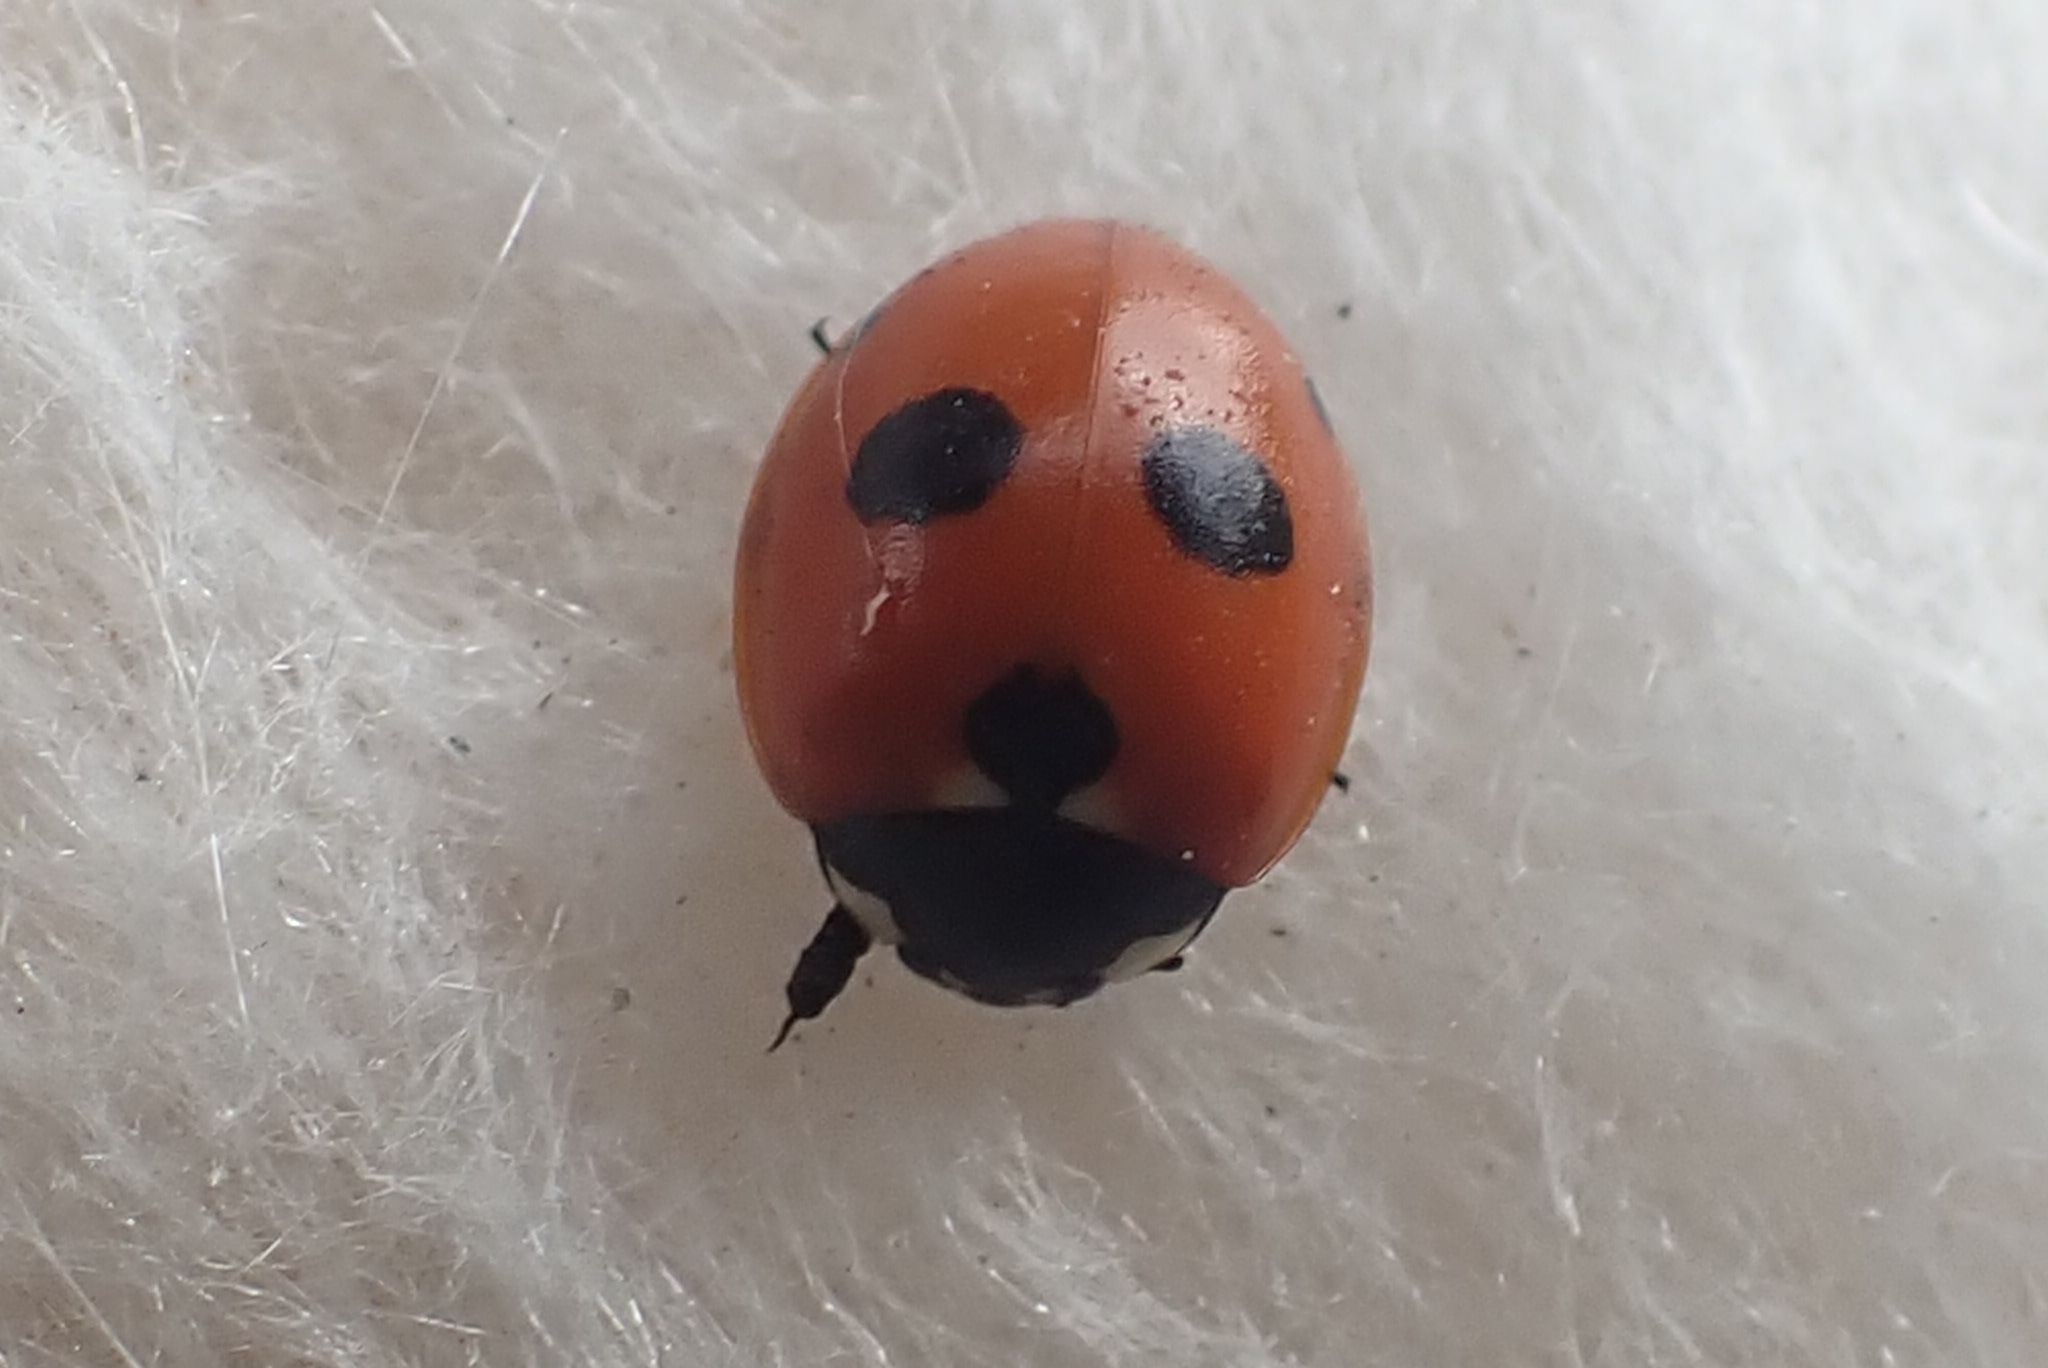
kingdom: Animalia
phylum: Arthropoda
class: Insecta
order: Coleoptera
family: Coccinellidae
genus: Coccinella
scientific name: Coccinella quinquepunctata
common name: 5-spot ladybird
